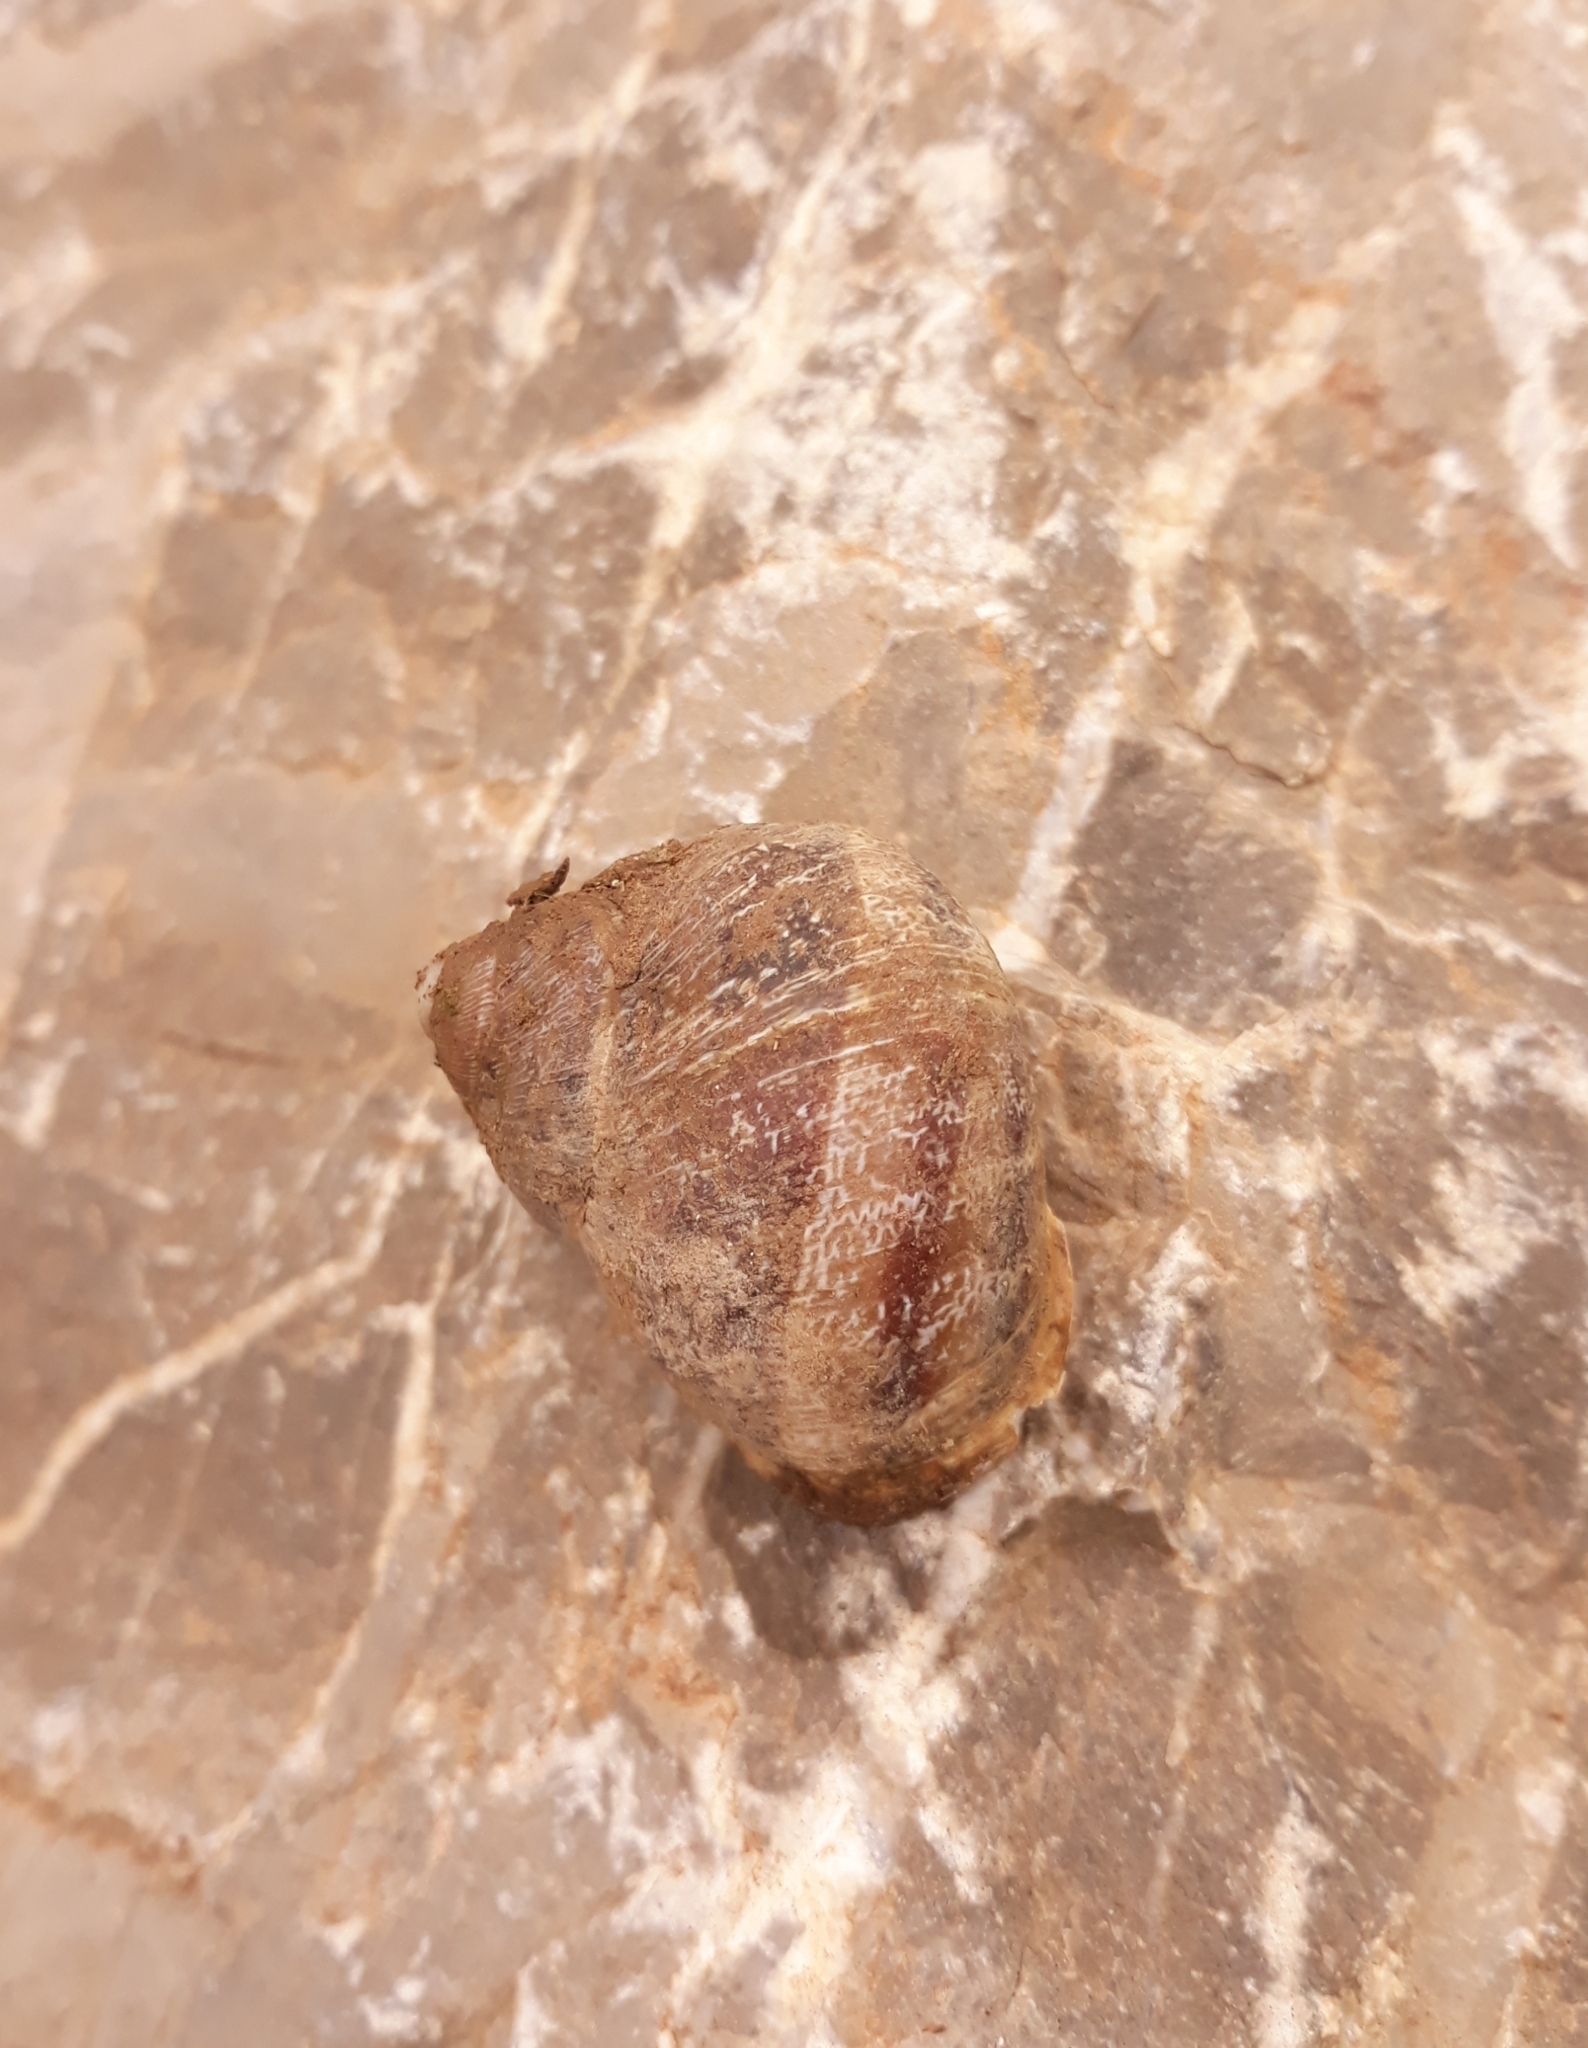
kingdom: Animalia
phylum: Mollusca
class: Gastropoda
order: Stylommatophora
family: Helicidae
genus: Cornu
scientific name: Cornu aspersum
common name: Brown garden snail
